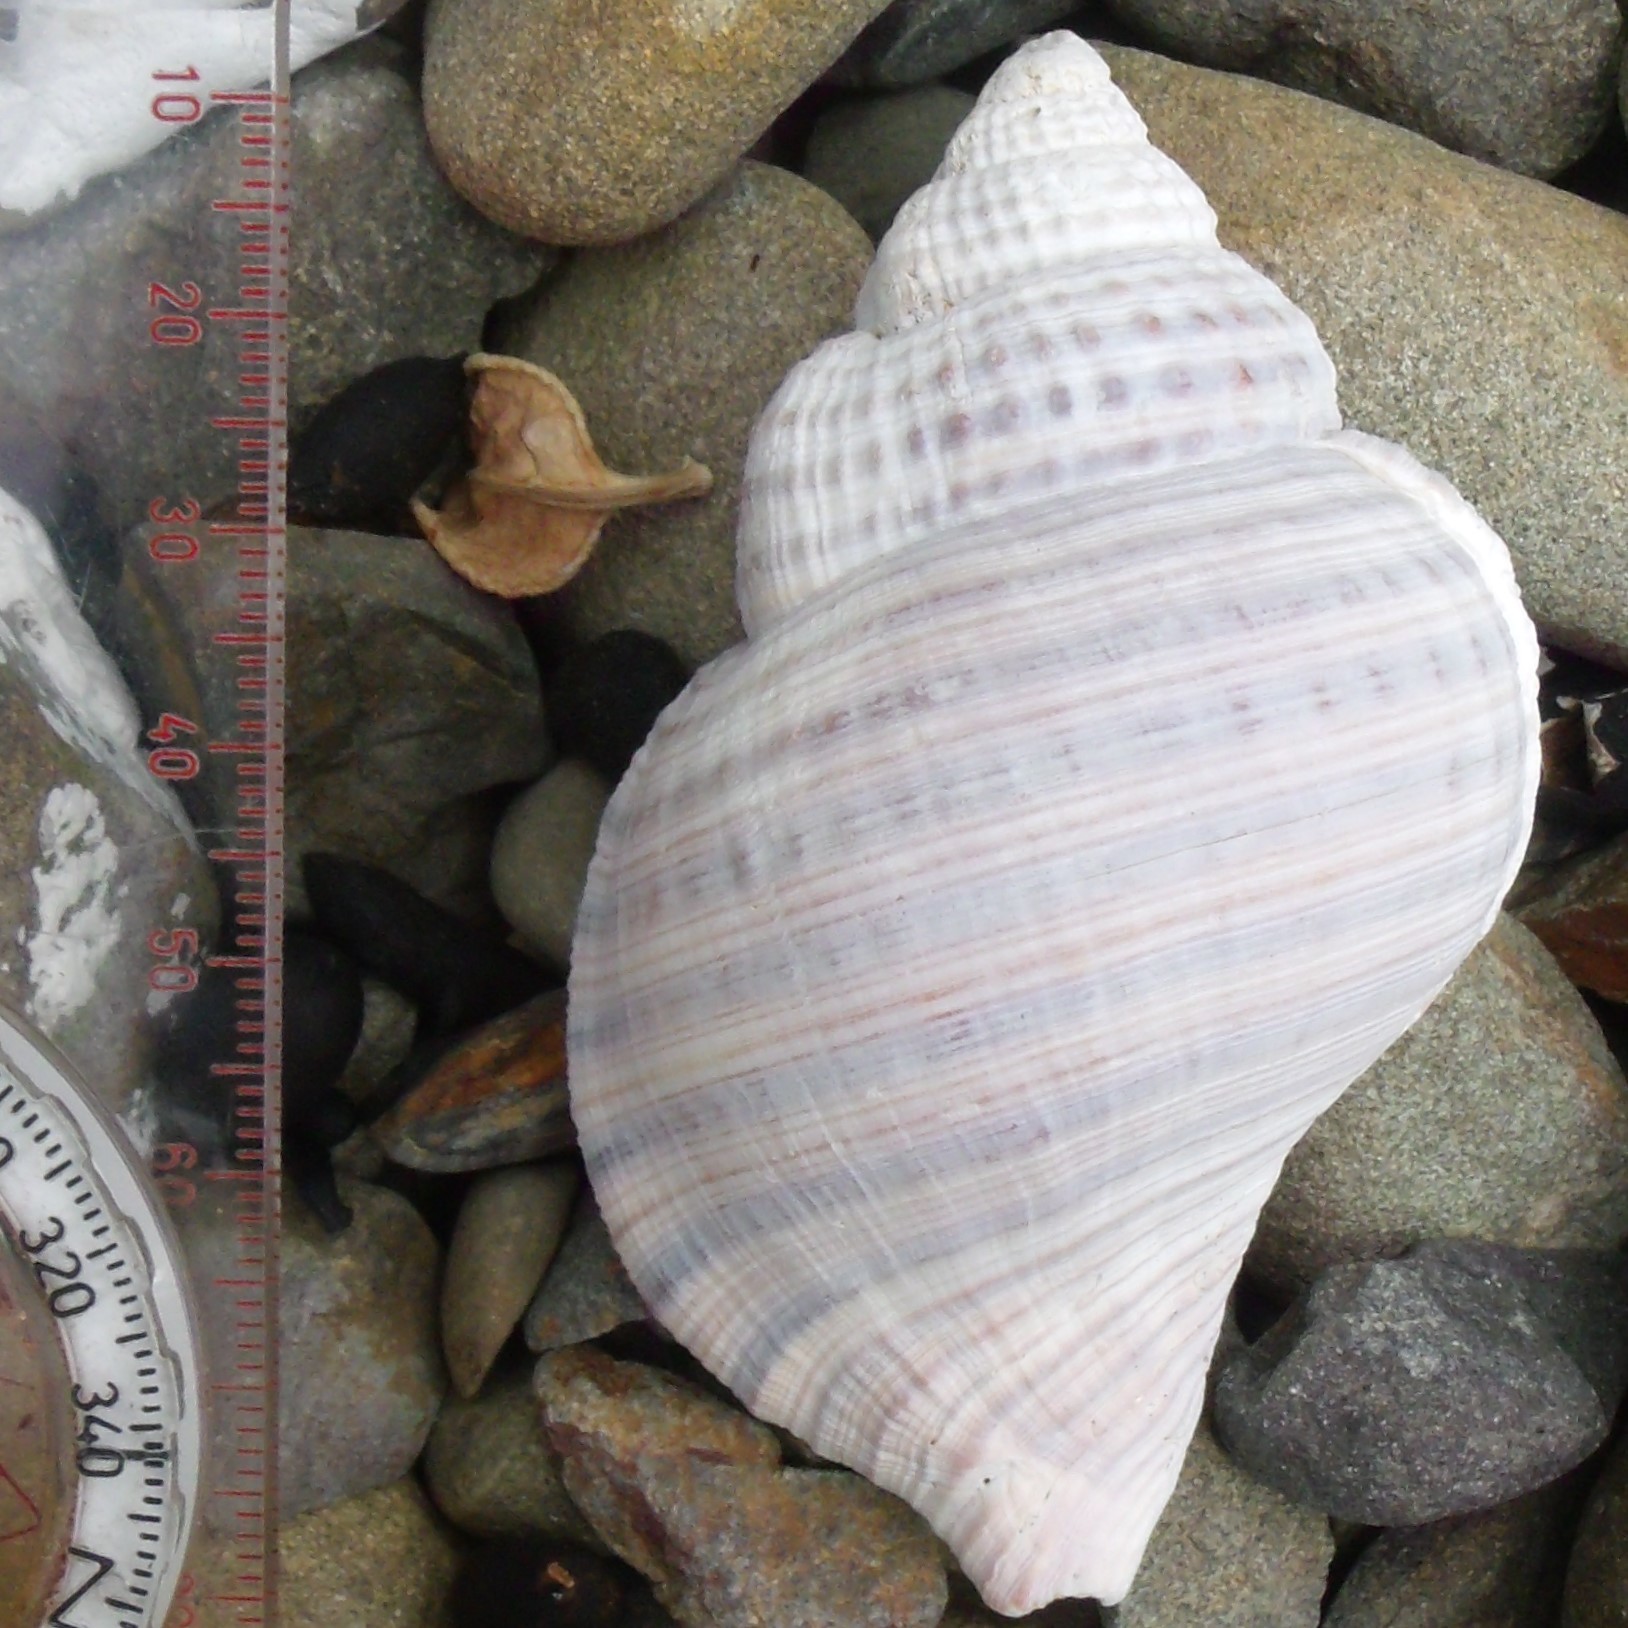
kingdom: Animalia
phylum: Mollusca
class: Gastropoda
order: Littorinimorpha
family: Cymatiidae
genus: Argobuccinum
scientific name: Argobuccinum pustulosum
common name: Pustular triton
